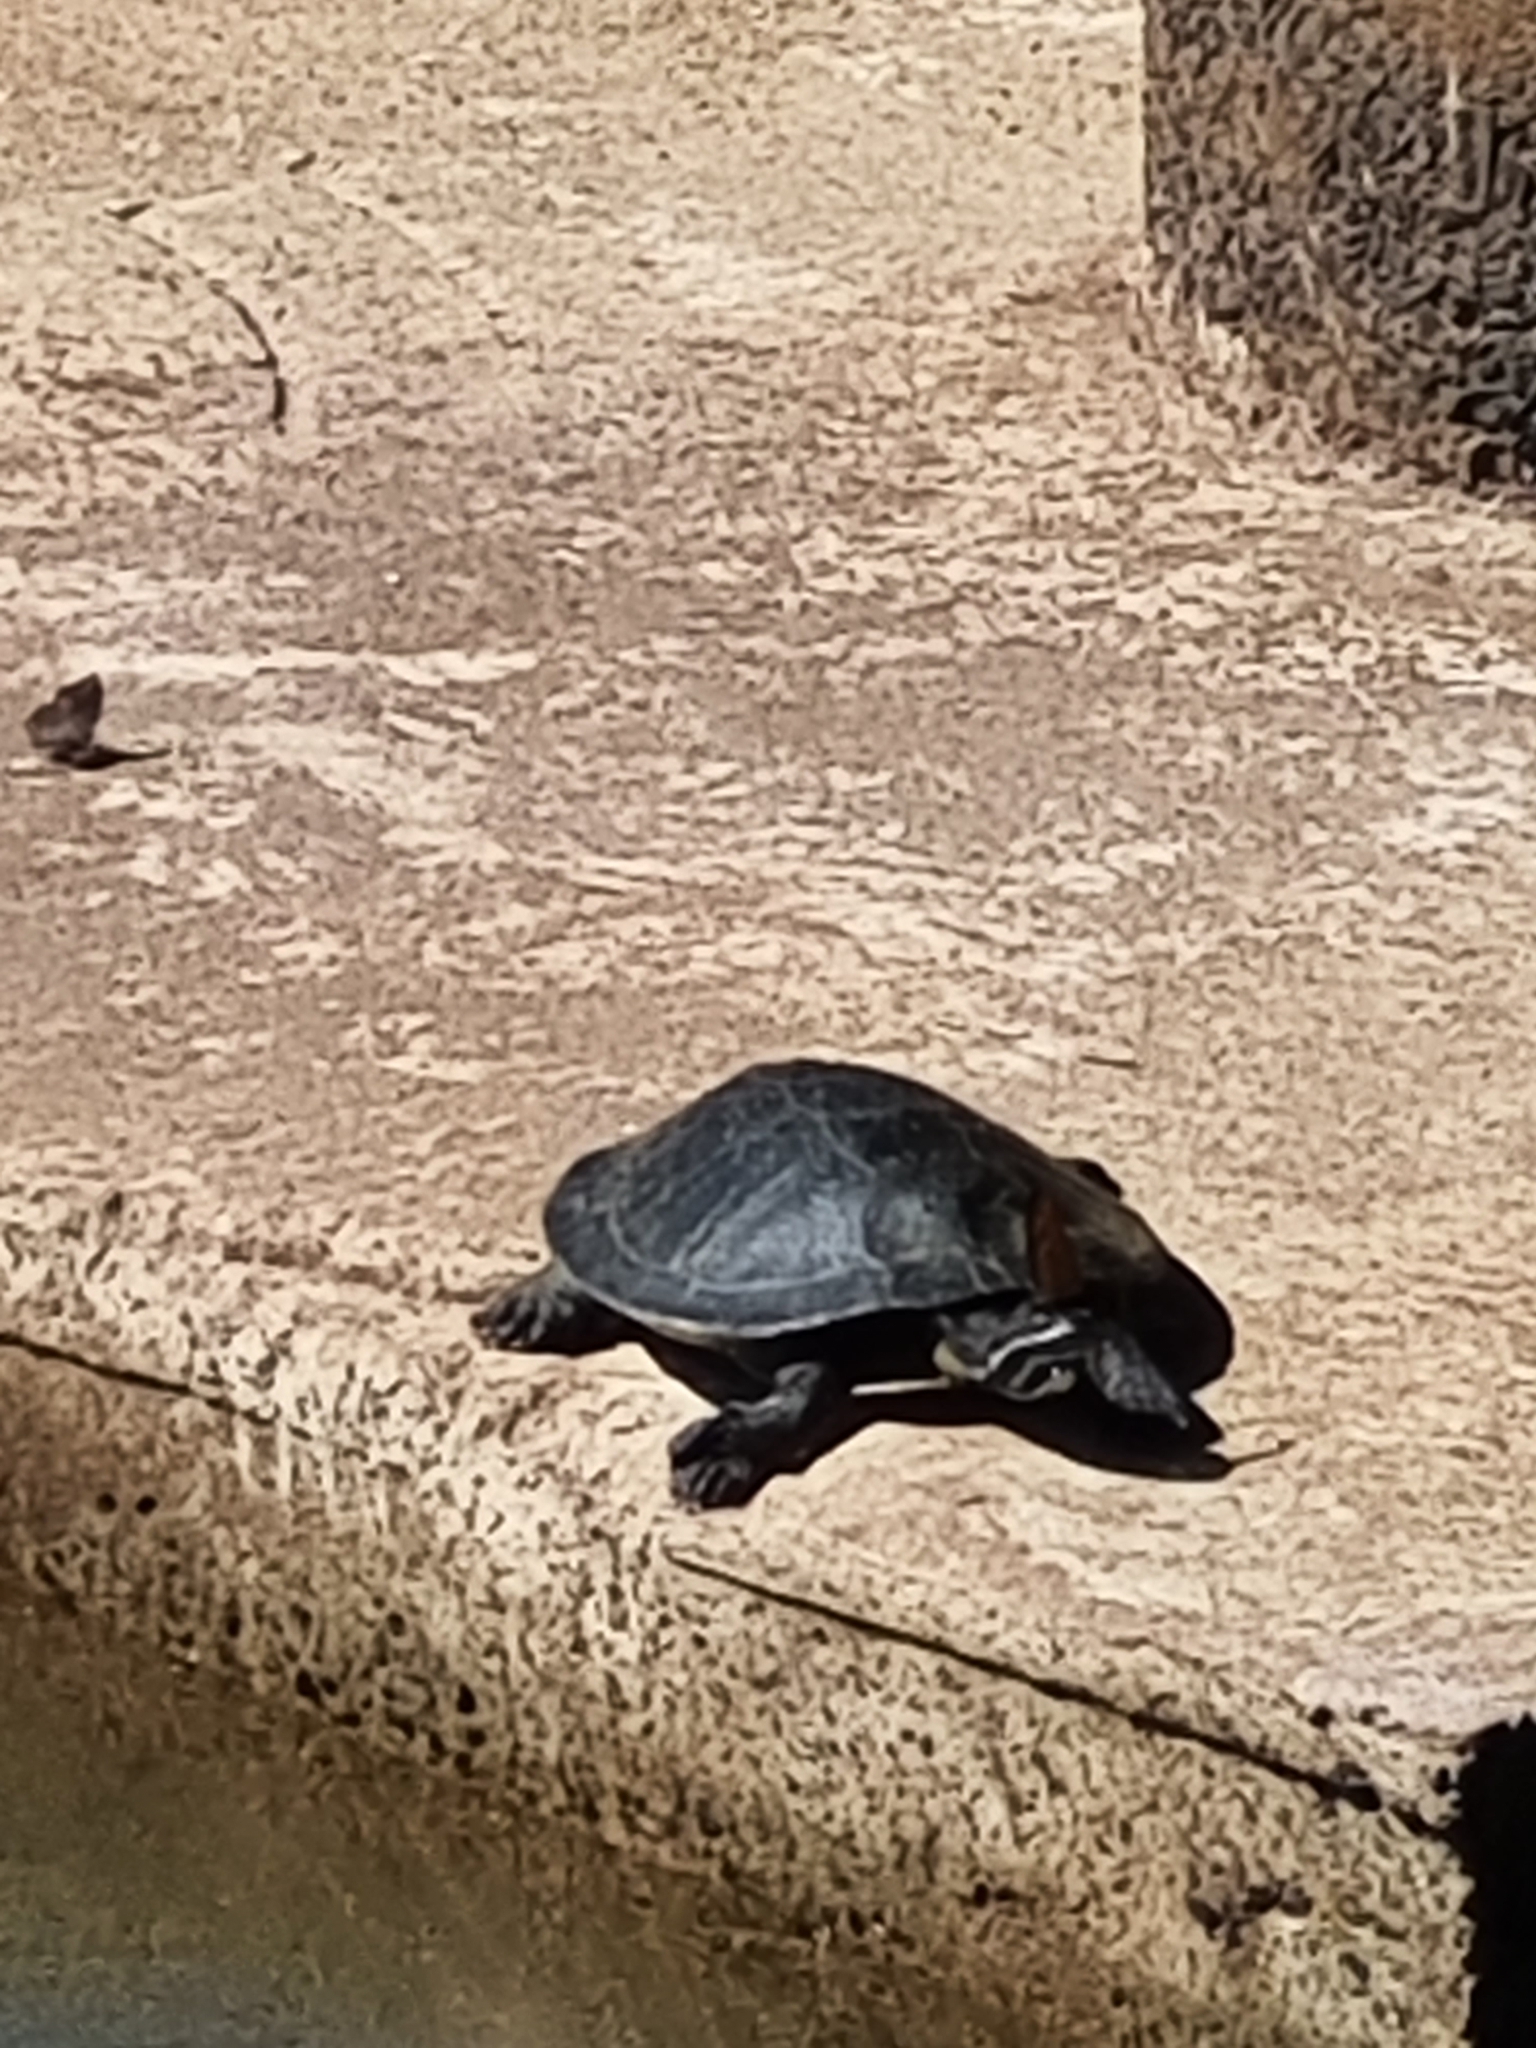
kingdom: Animalia
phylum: Chordata
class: Testudines
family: Chelidae
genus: Phrynops
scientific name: Phrynops williamsi
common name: Williams side-necked turtle
